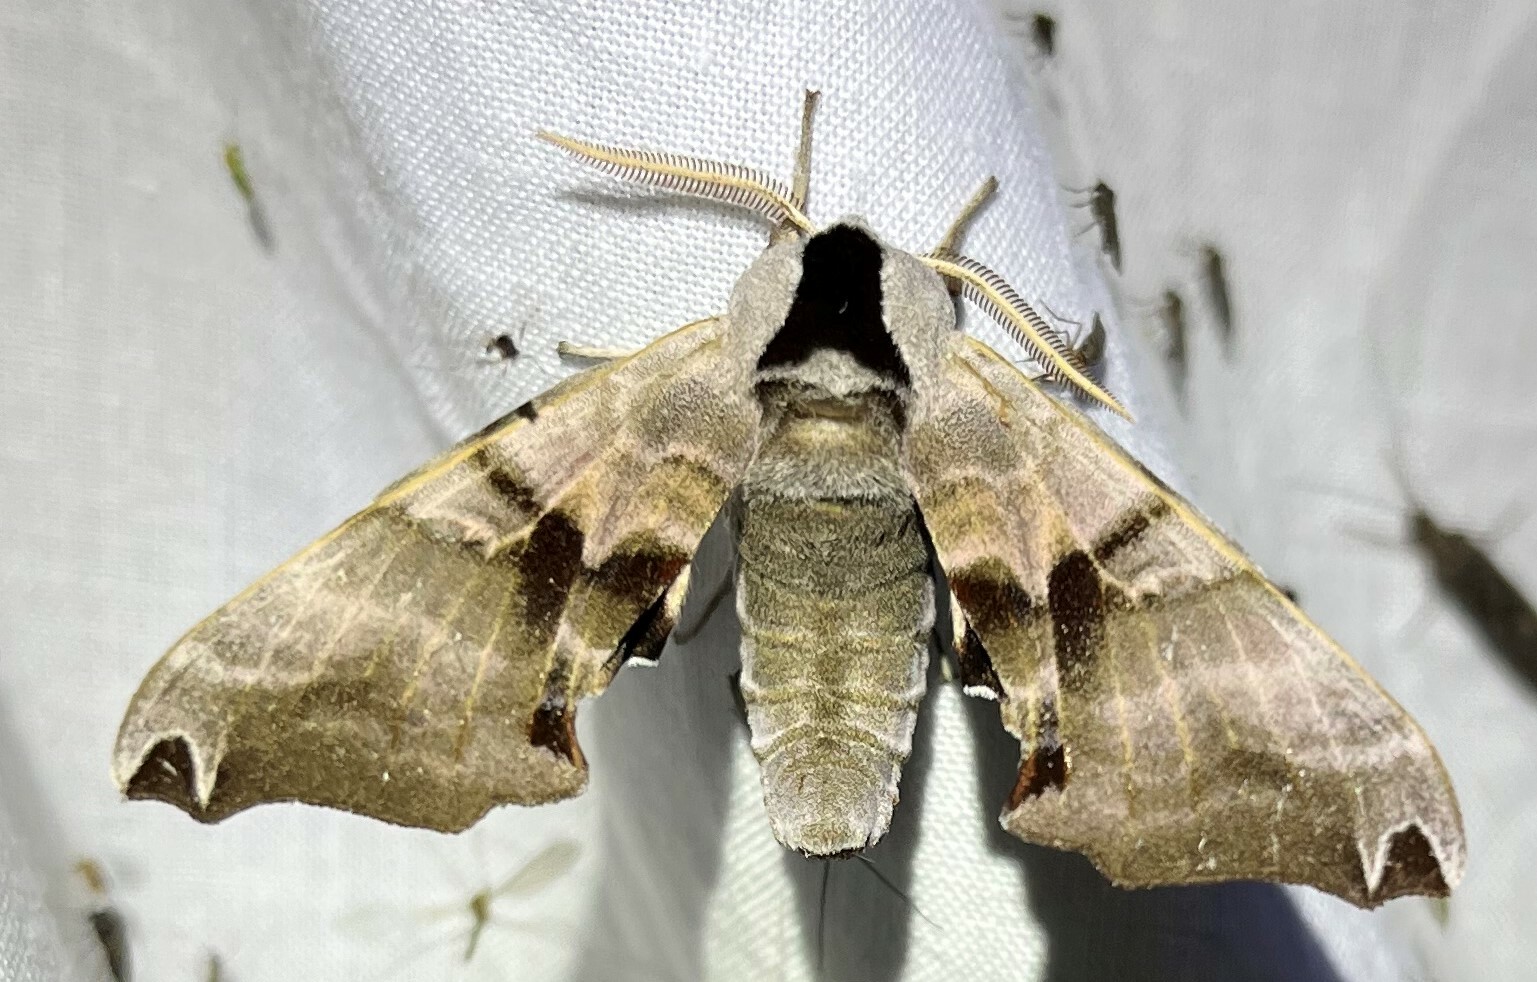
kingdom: Animalia
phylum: Arthropoda
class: Insecta
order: Lepidoptera
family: Sphingidae
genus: Smerinthus
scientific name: Smerinthus jamaicensis
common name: Twin spotted sphinx
